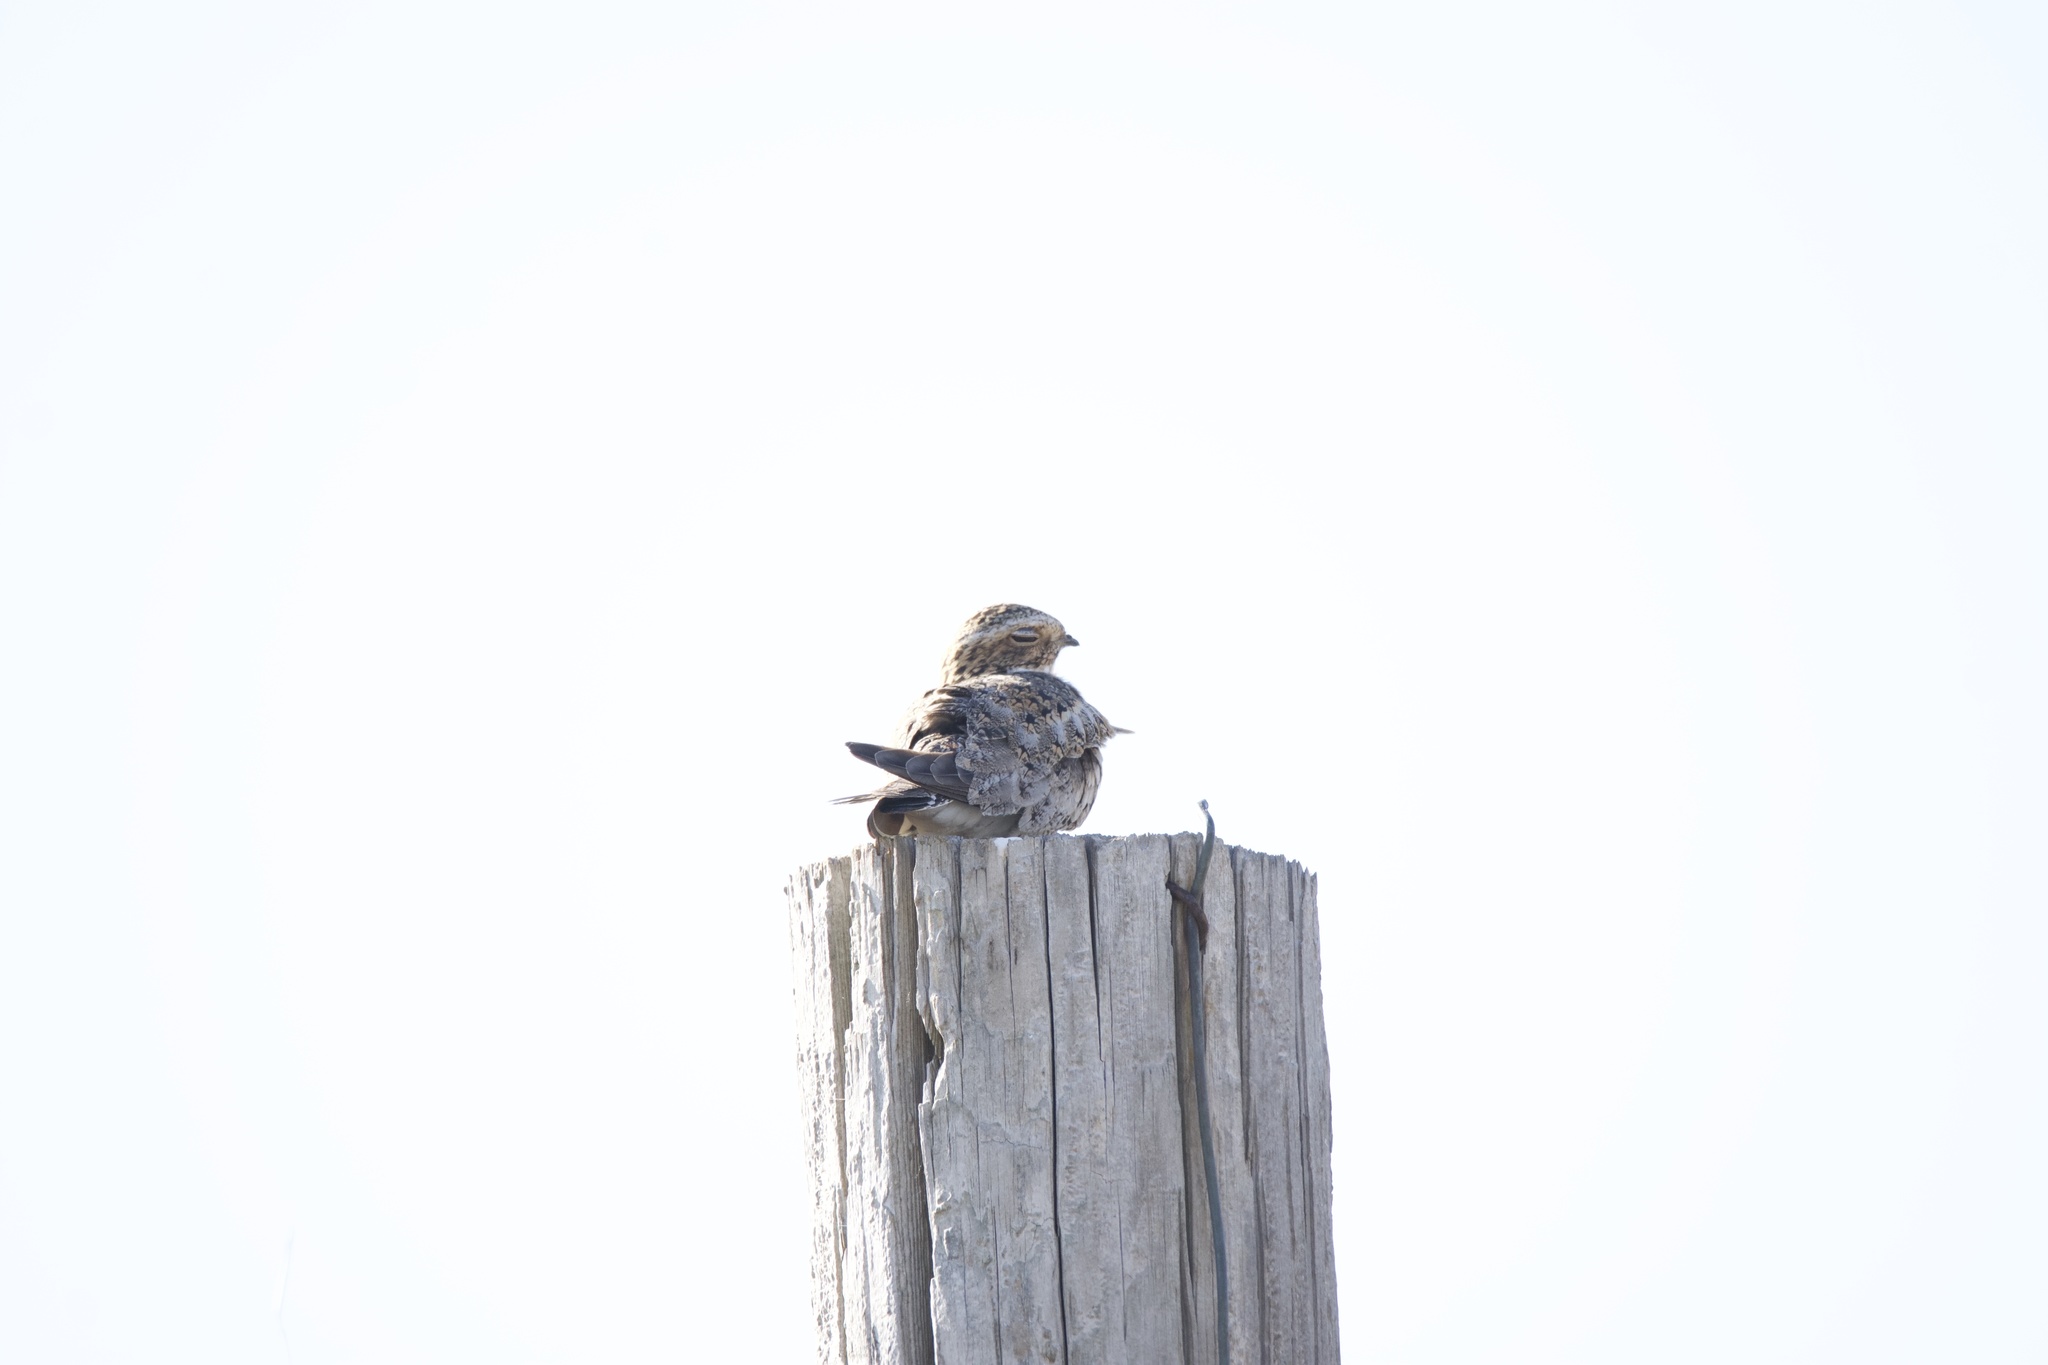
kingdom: Animalia
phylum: Chordata
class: Aves
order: Caprimulgiformes
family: Caprimulgidae
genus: Chordeiles
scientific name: Chordeiles minor
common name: Common nighthawk
